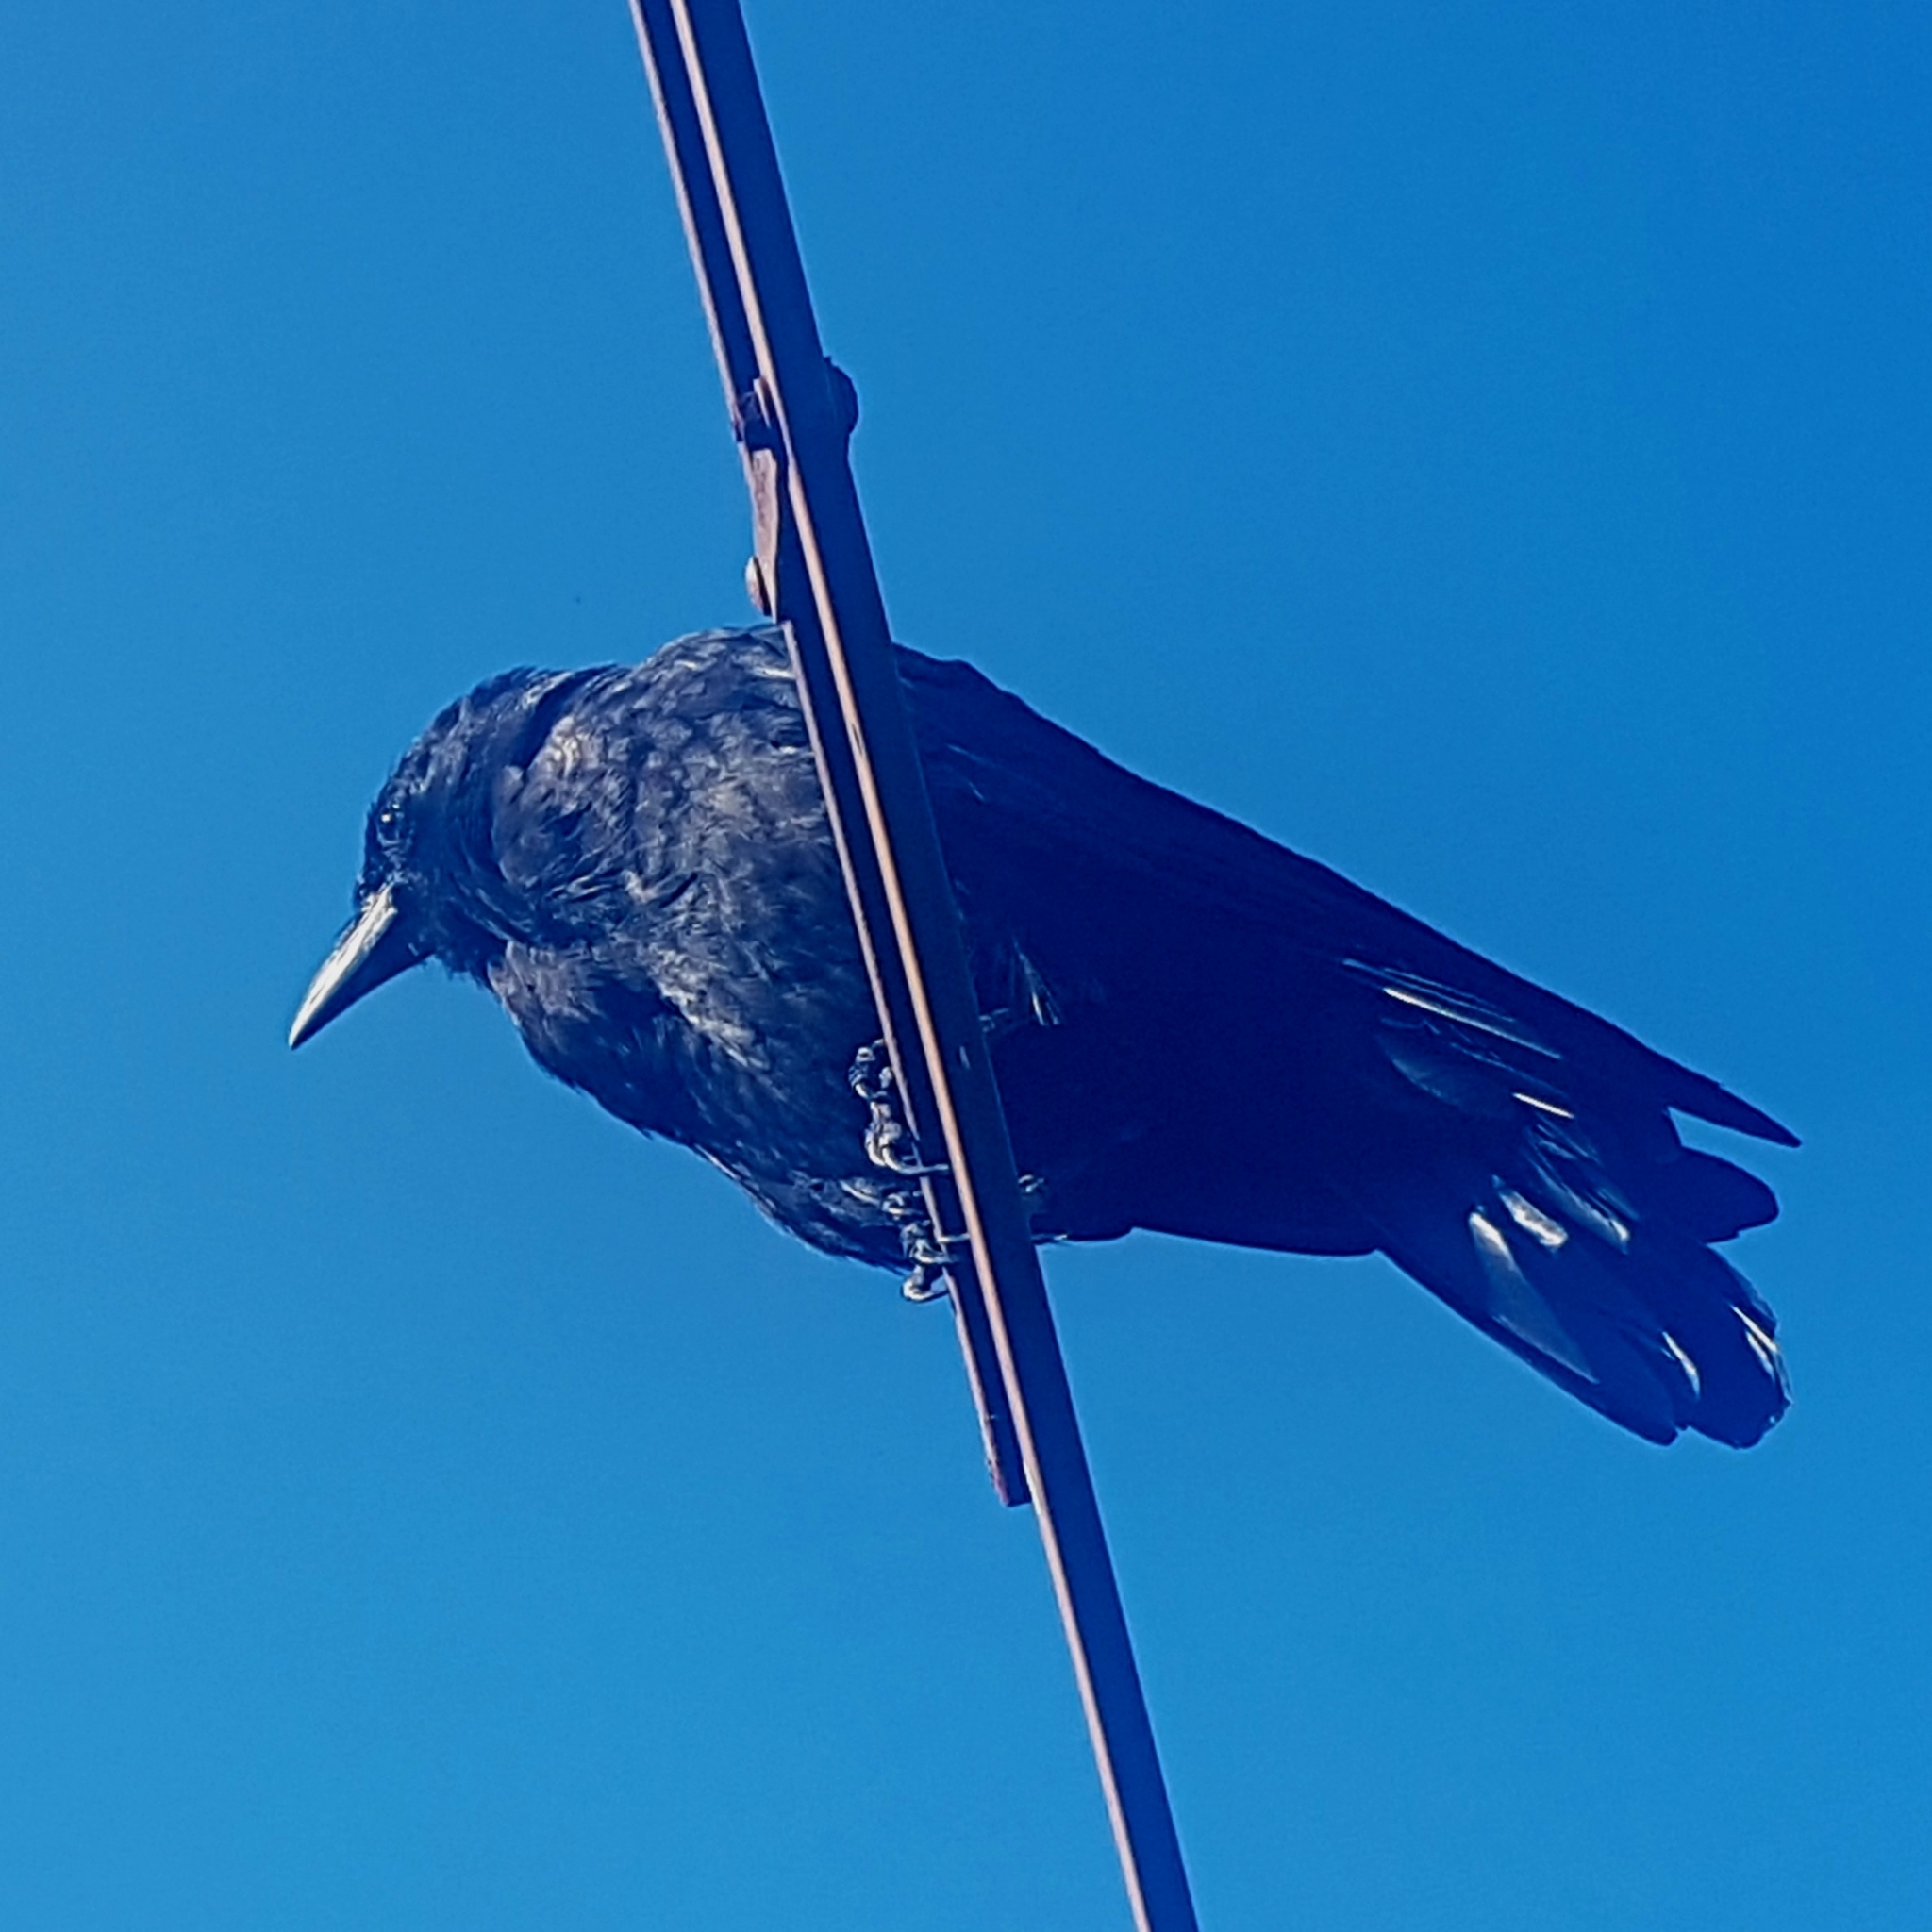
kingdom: Animalia
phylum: Chordata
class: Aves
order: Passeriformes
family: Corvidae
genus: Corvus
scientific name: Corvus brachyrhynchos
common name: American crow
